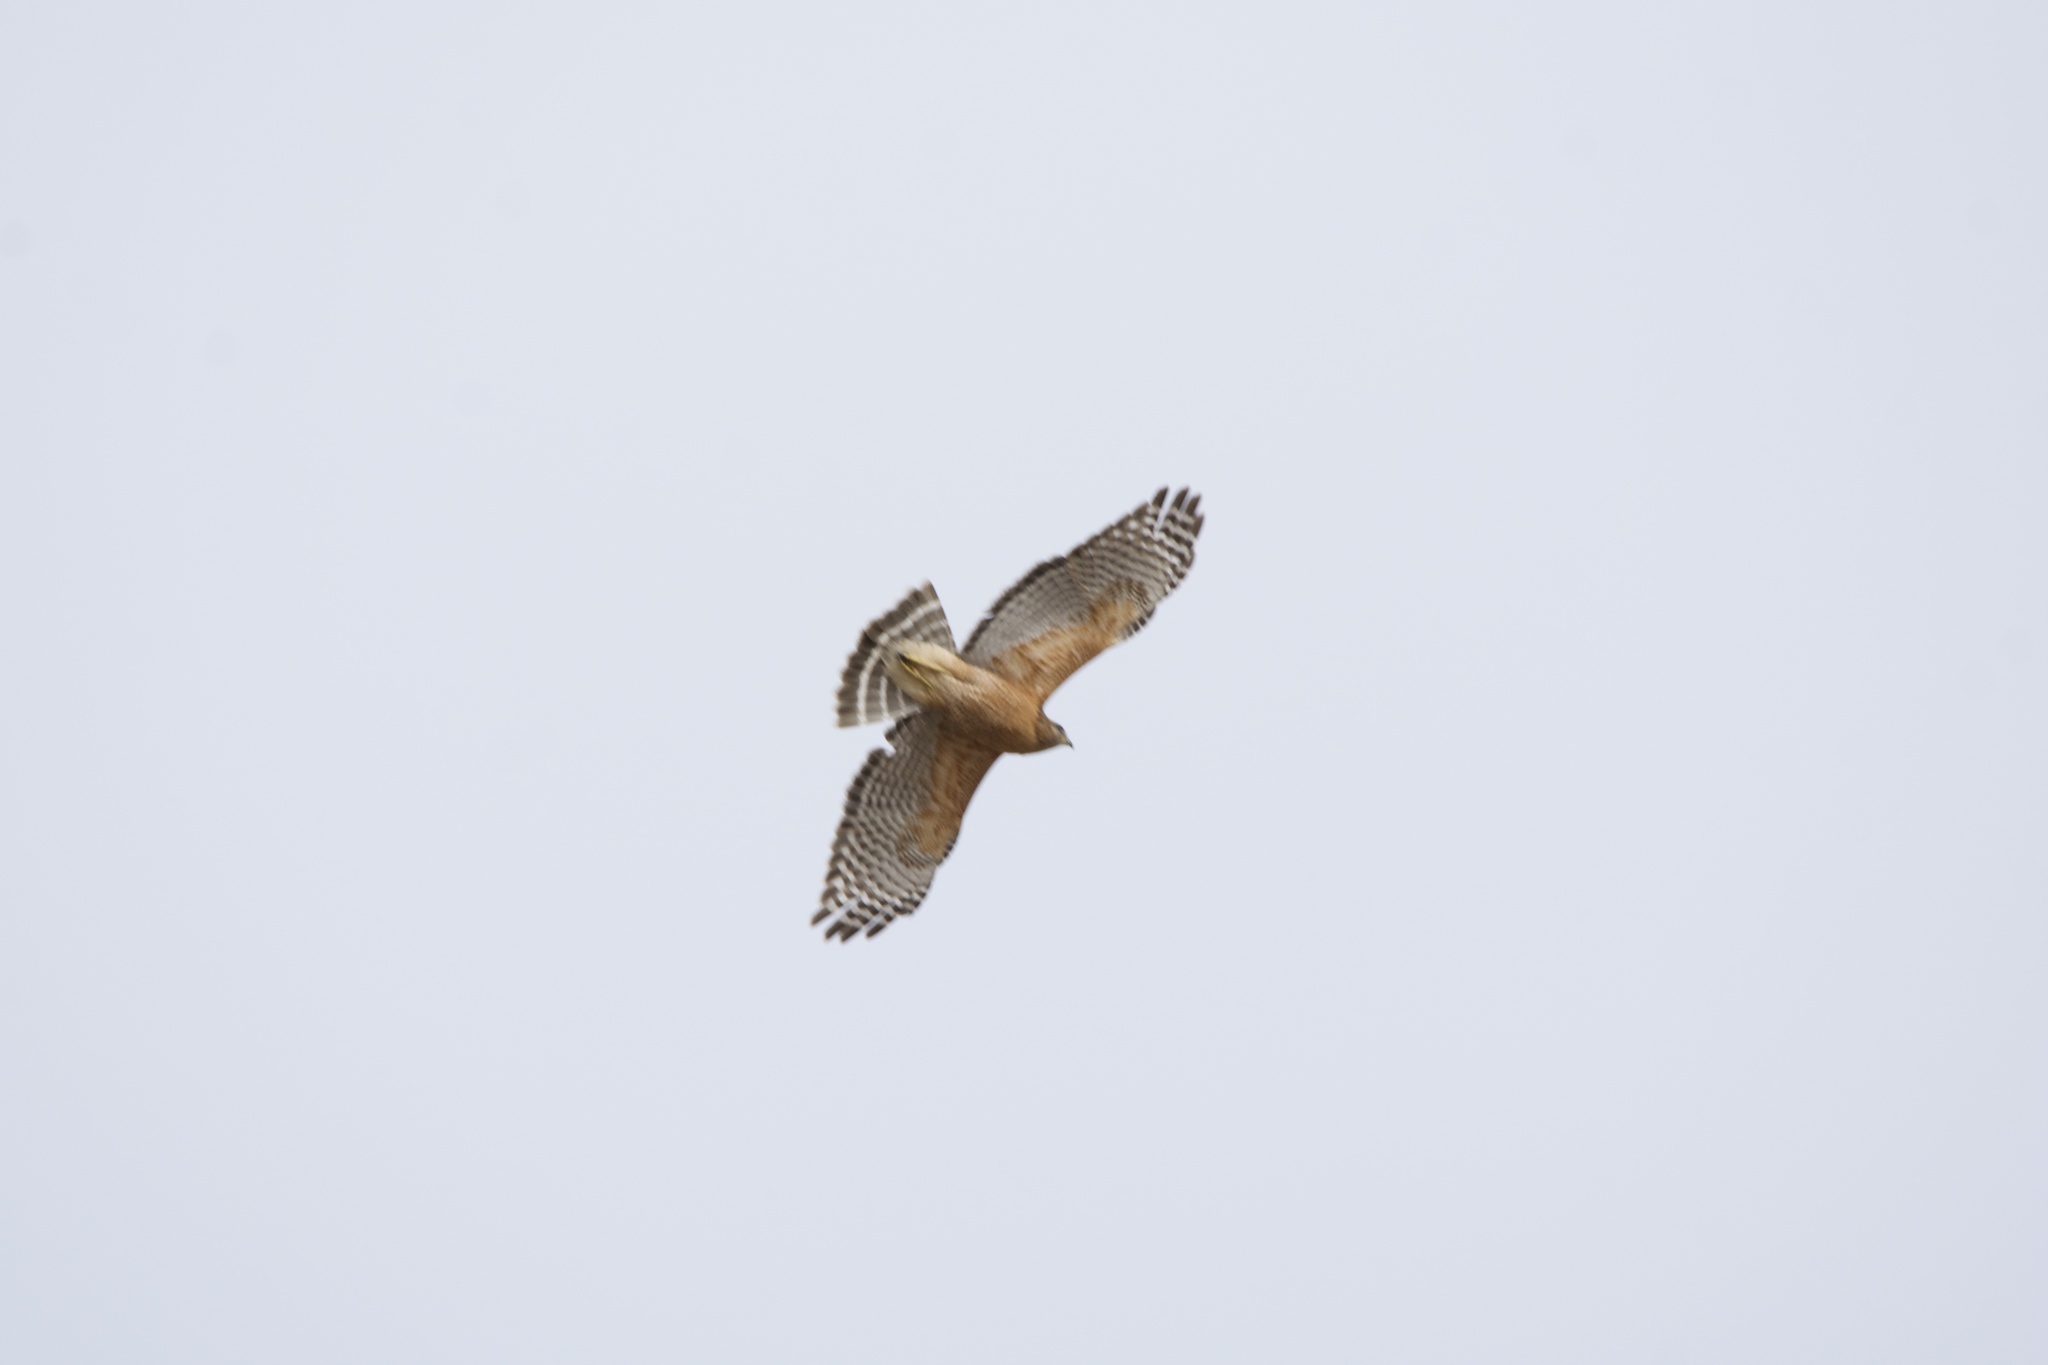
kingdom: Animalia
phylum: Chordata
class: Aves
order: Accipitriformes
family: Accipitridae
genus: Buteo
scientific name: Buteo lineatus
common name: Red-shouldered hawk
